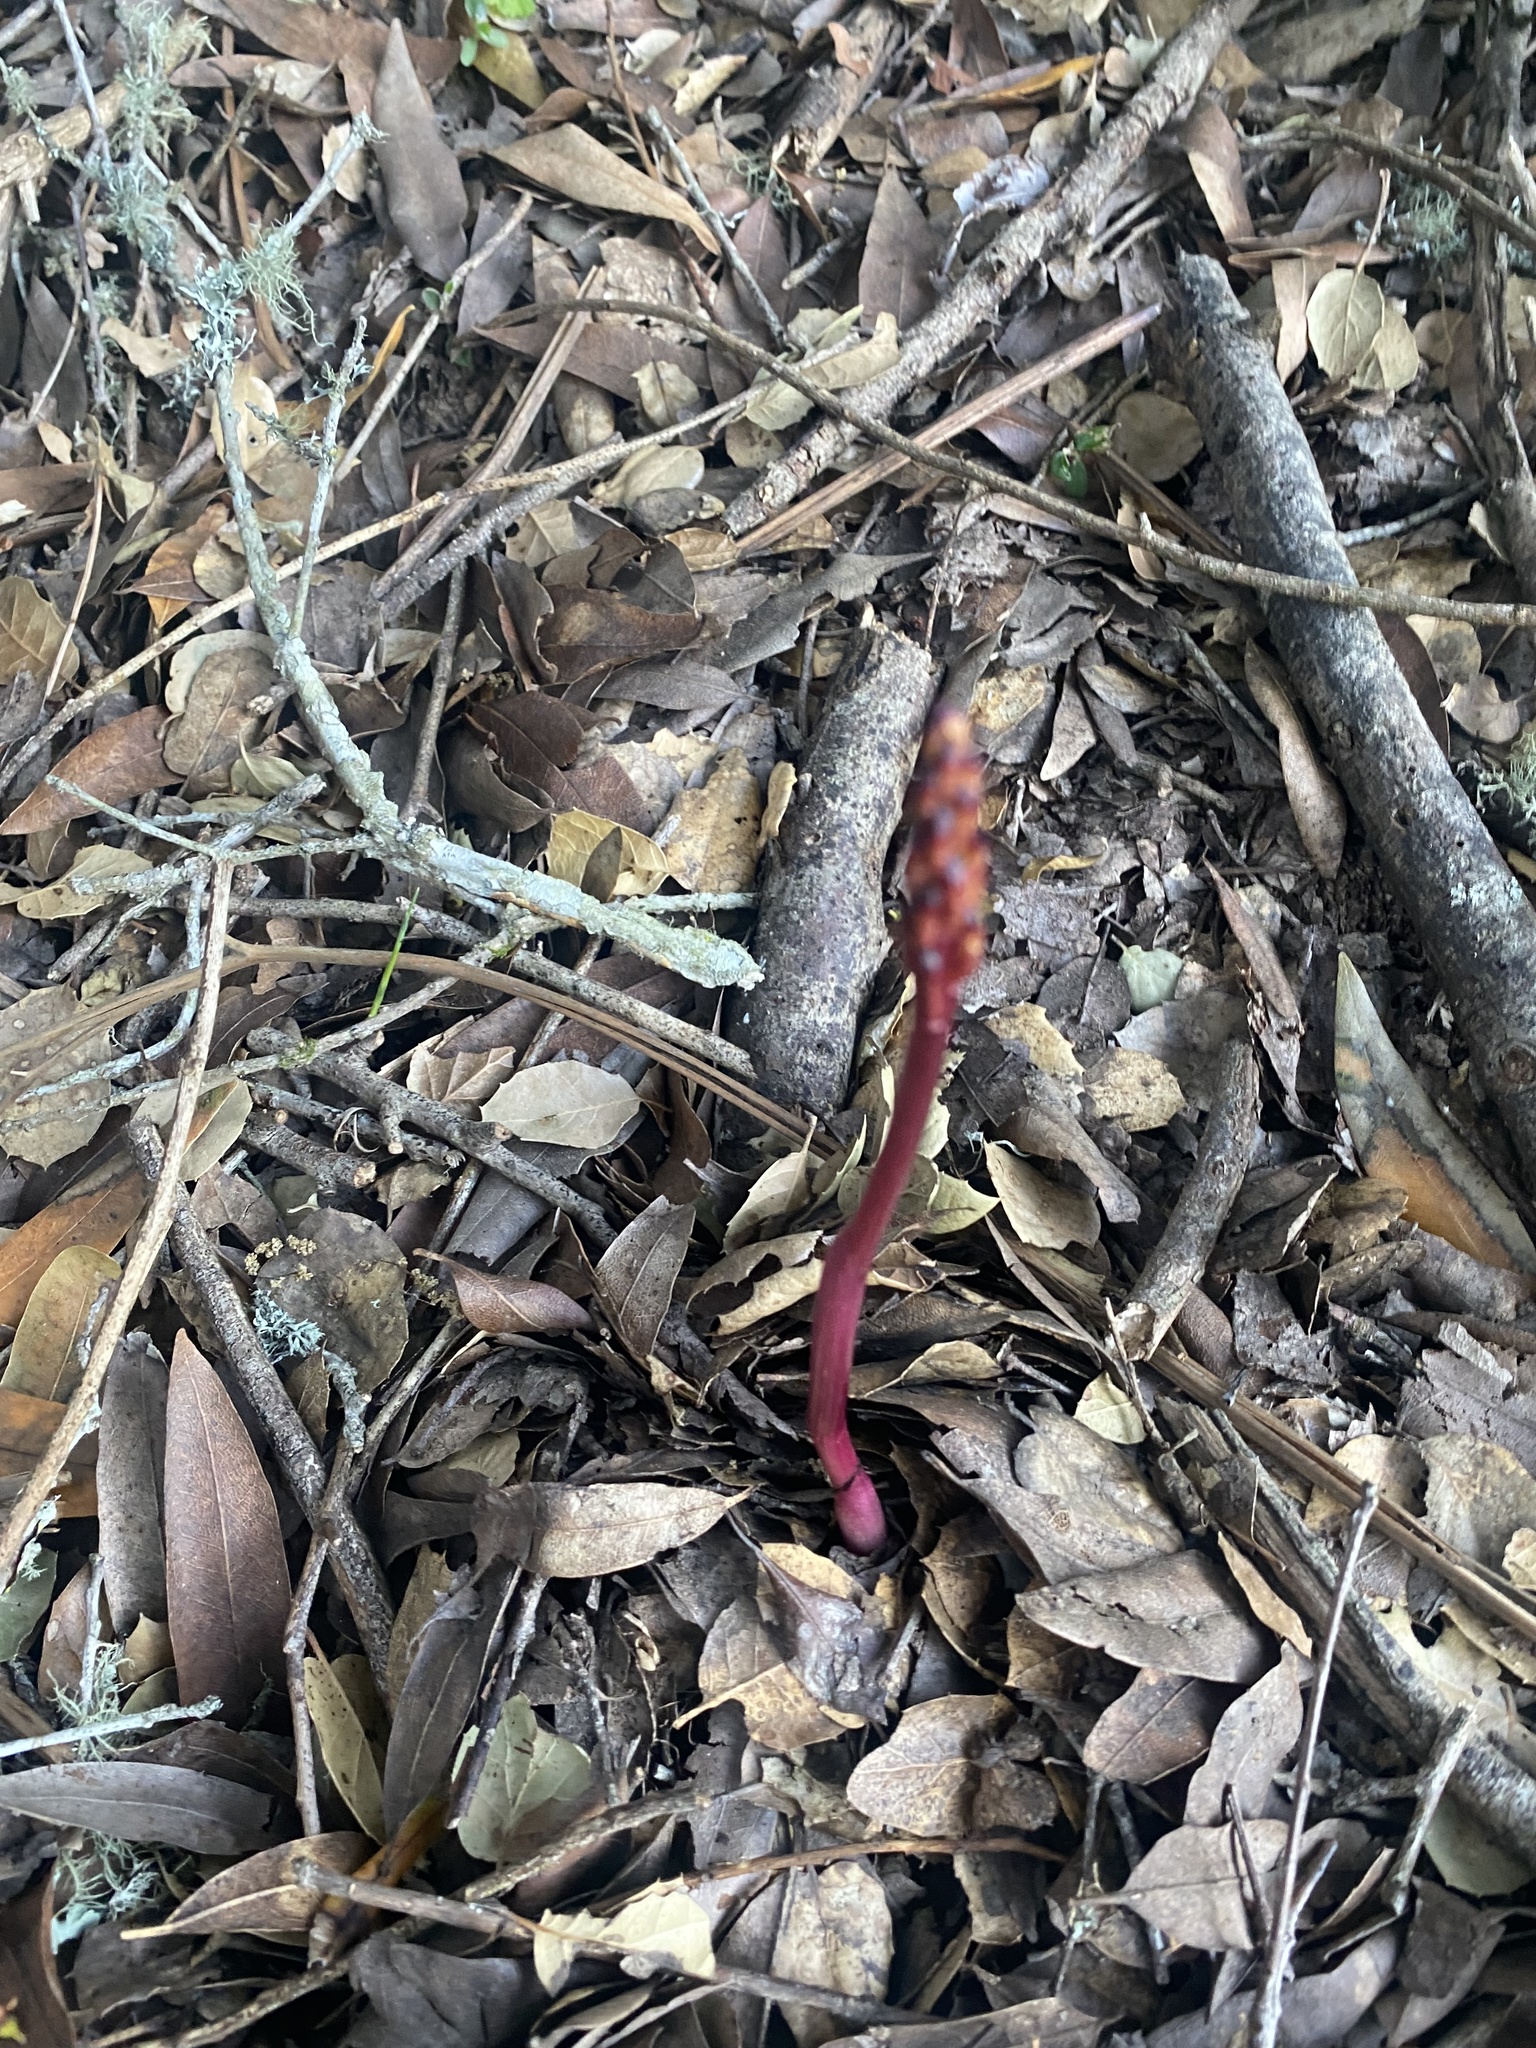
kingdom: Plantae
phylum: Tracheophyta
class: Liliopsida
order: Asparagales
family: Orchidaceae
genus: Corallorhiza
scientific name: Corallorhiza maculata
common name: Spotted coralroot
